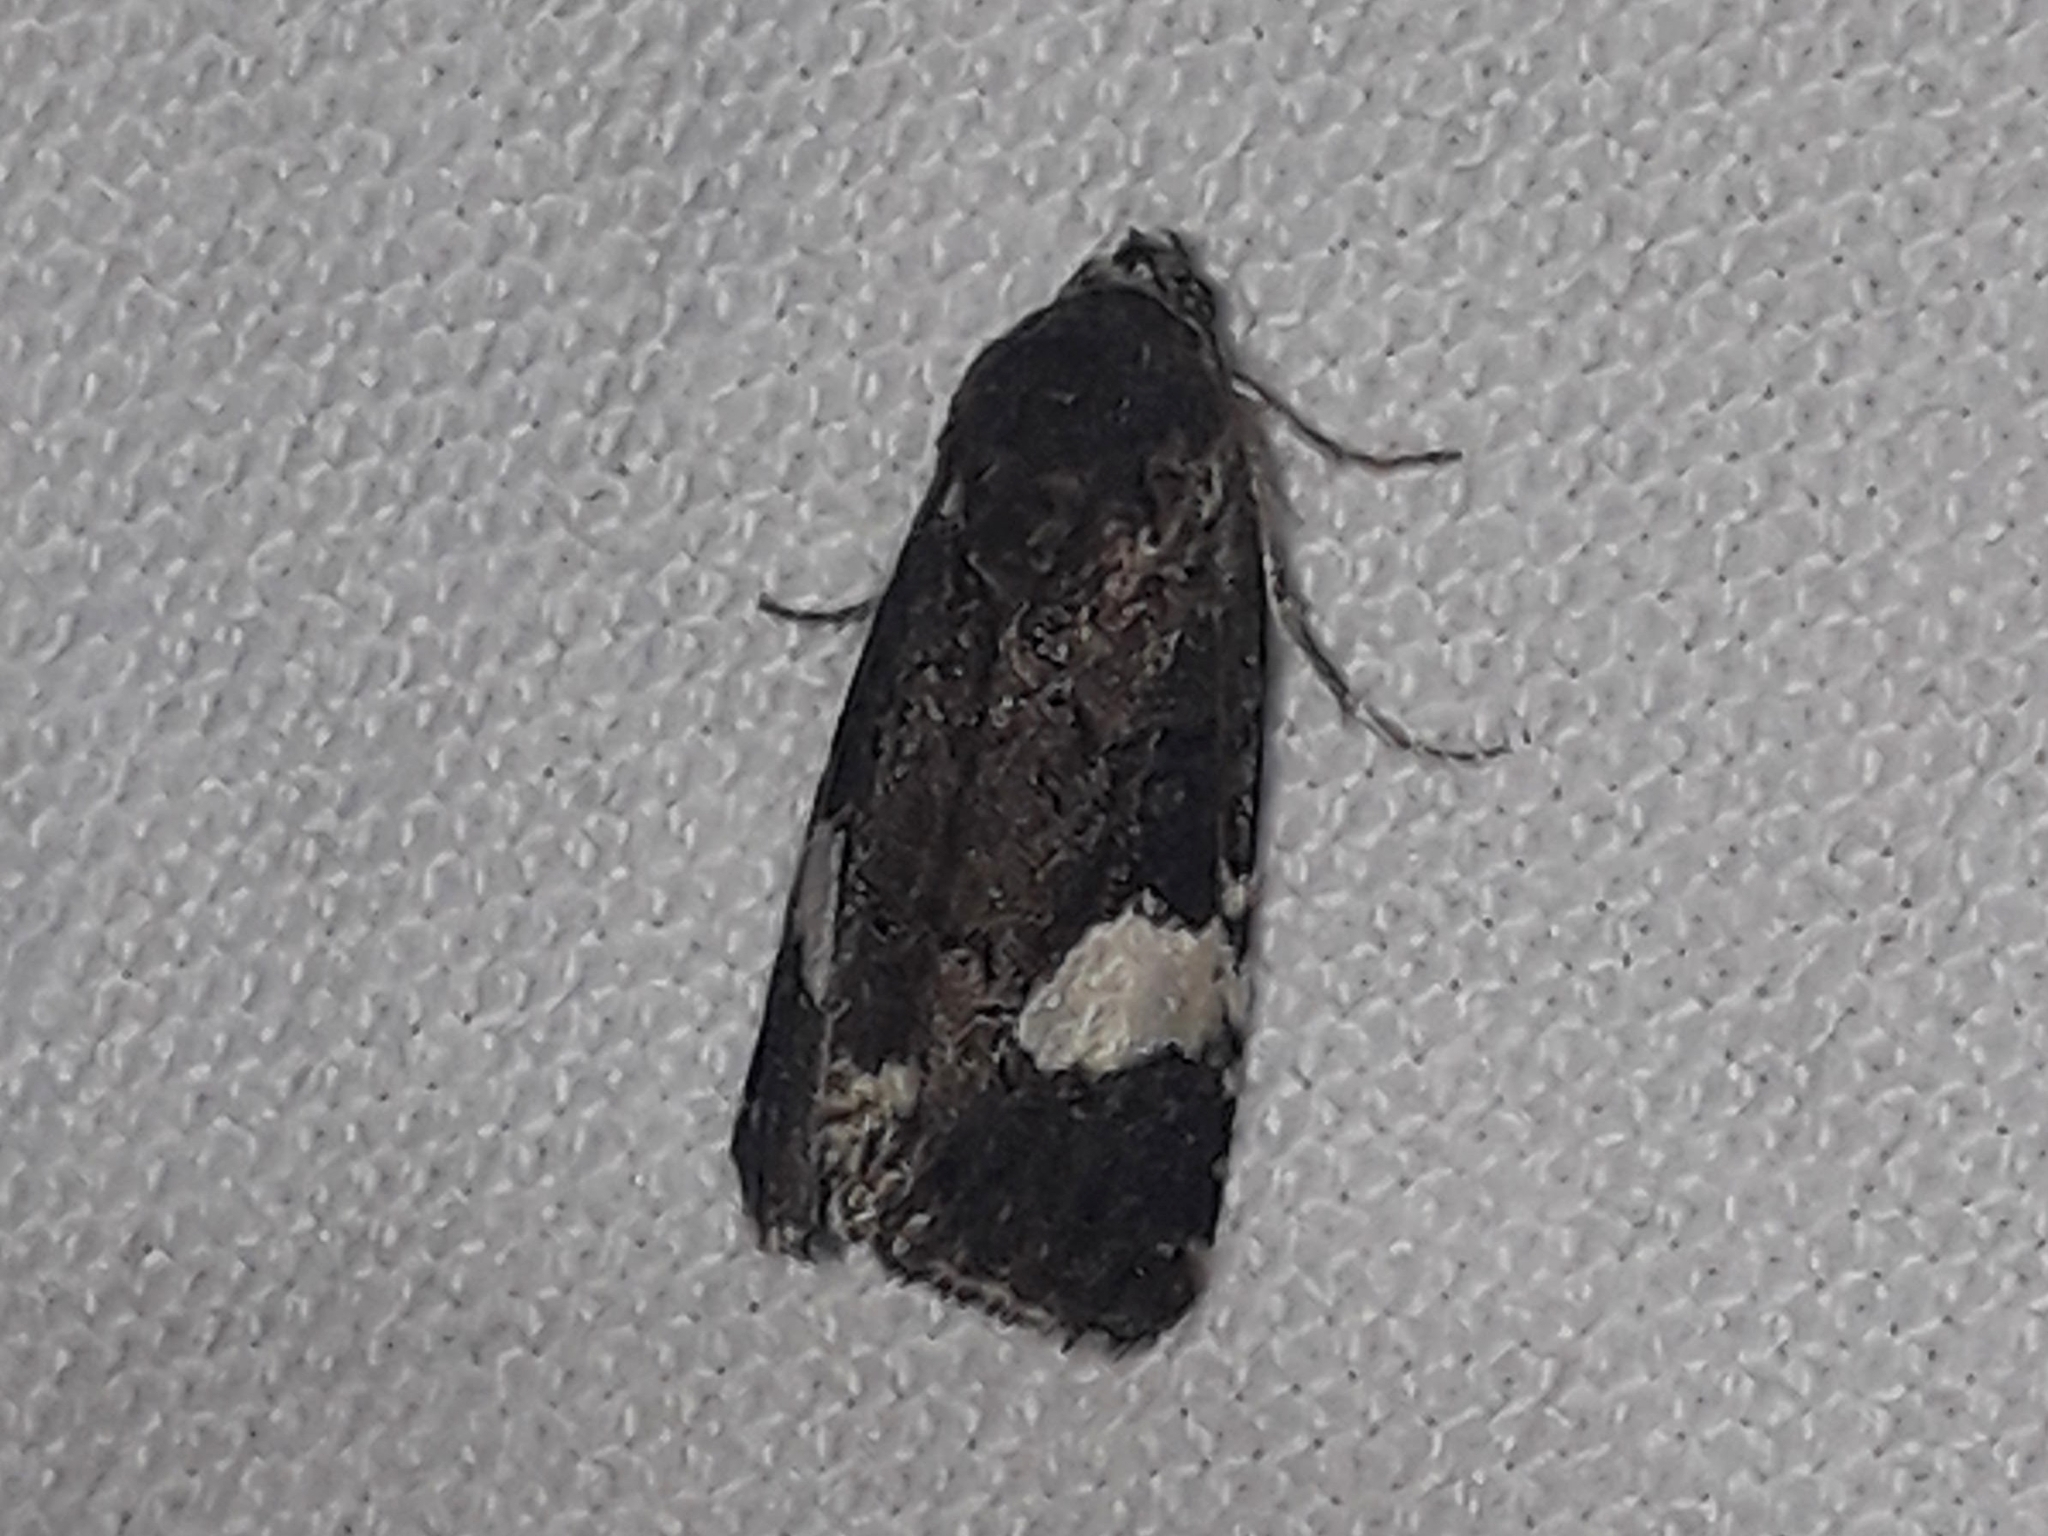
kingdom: Animalia
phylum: Arthropoda
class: Insecta
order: Lepidoptera
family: Erebidae
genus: Tyta
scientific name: Tyta luctuosa
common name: Four-spotted
